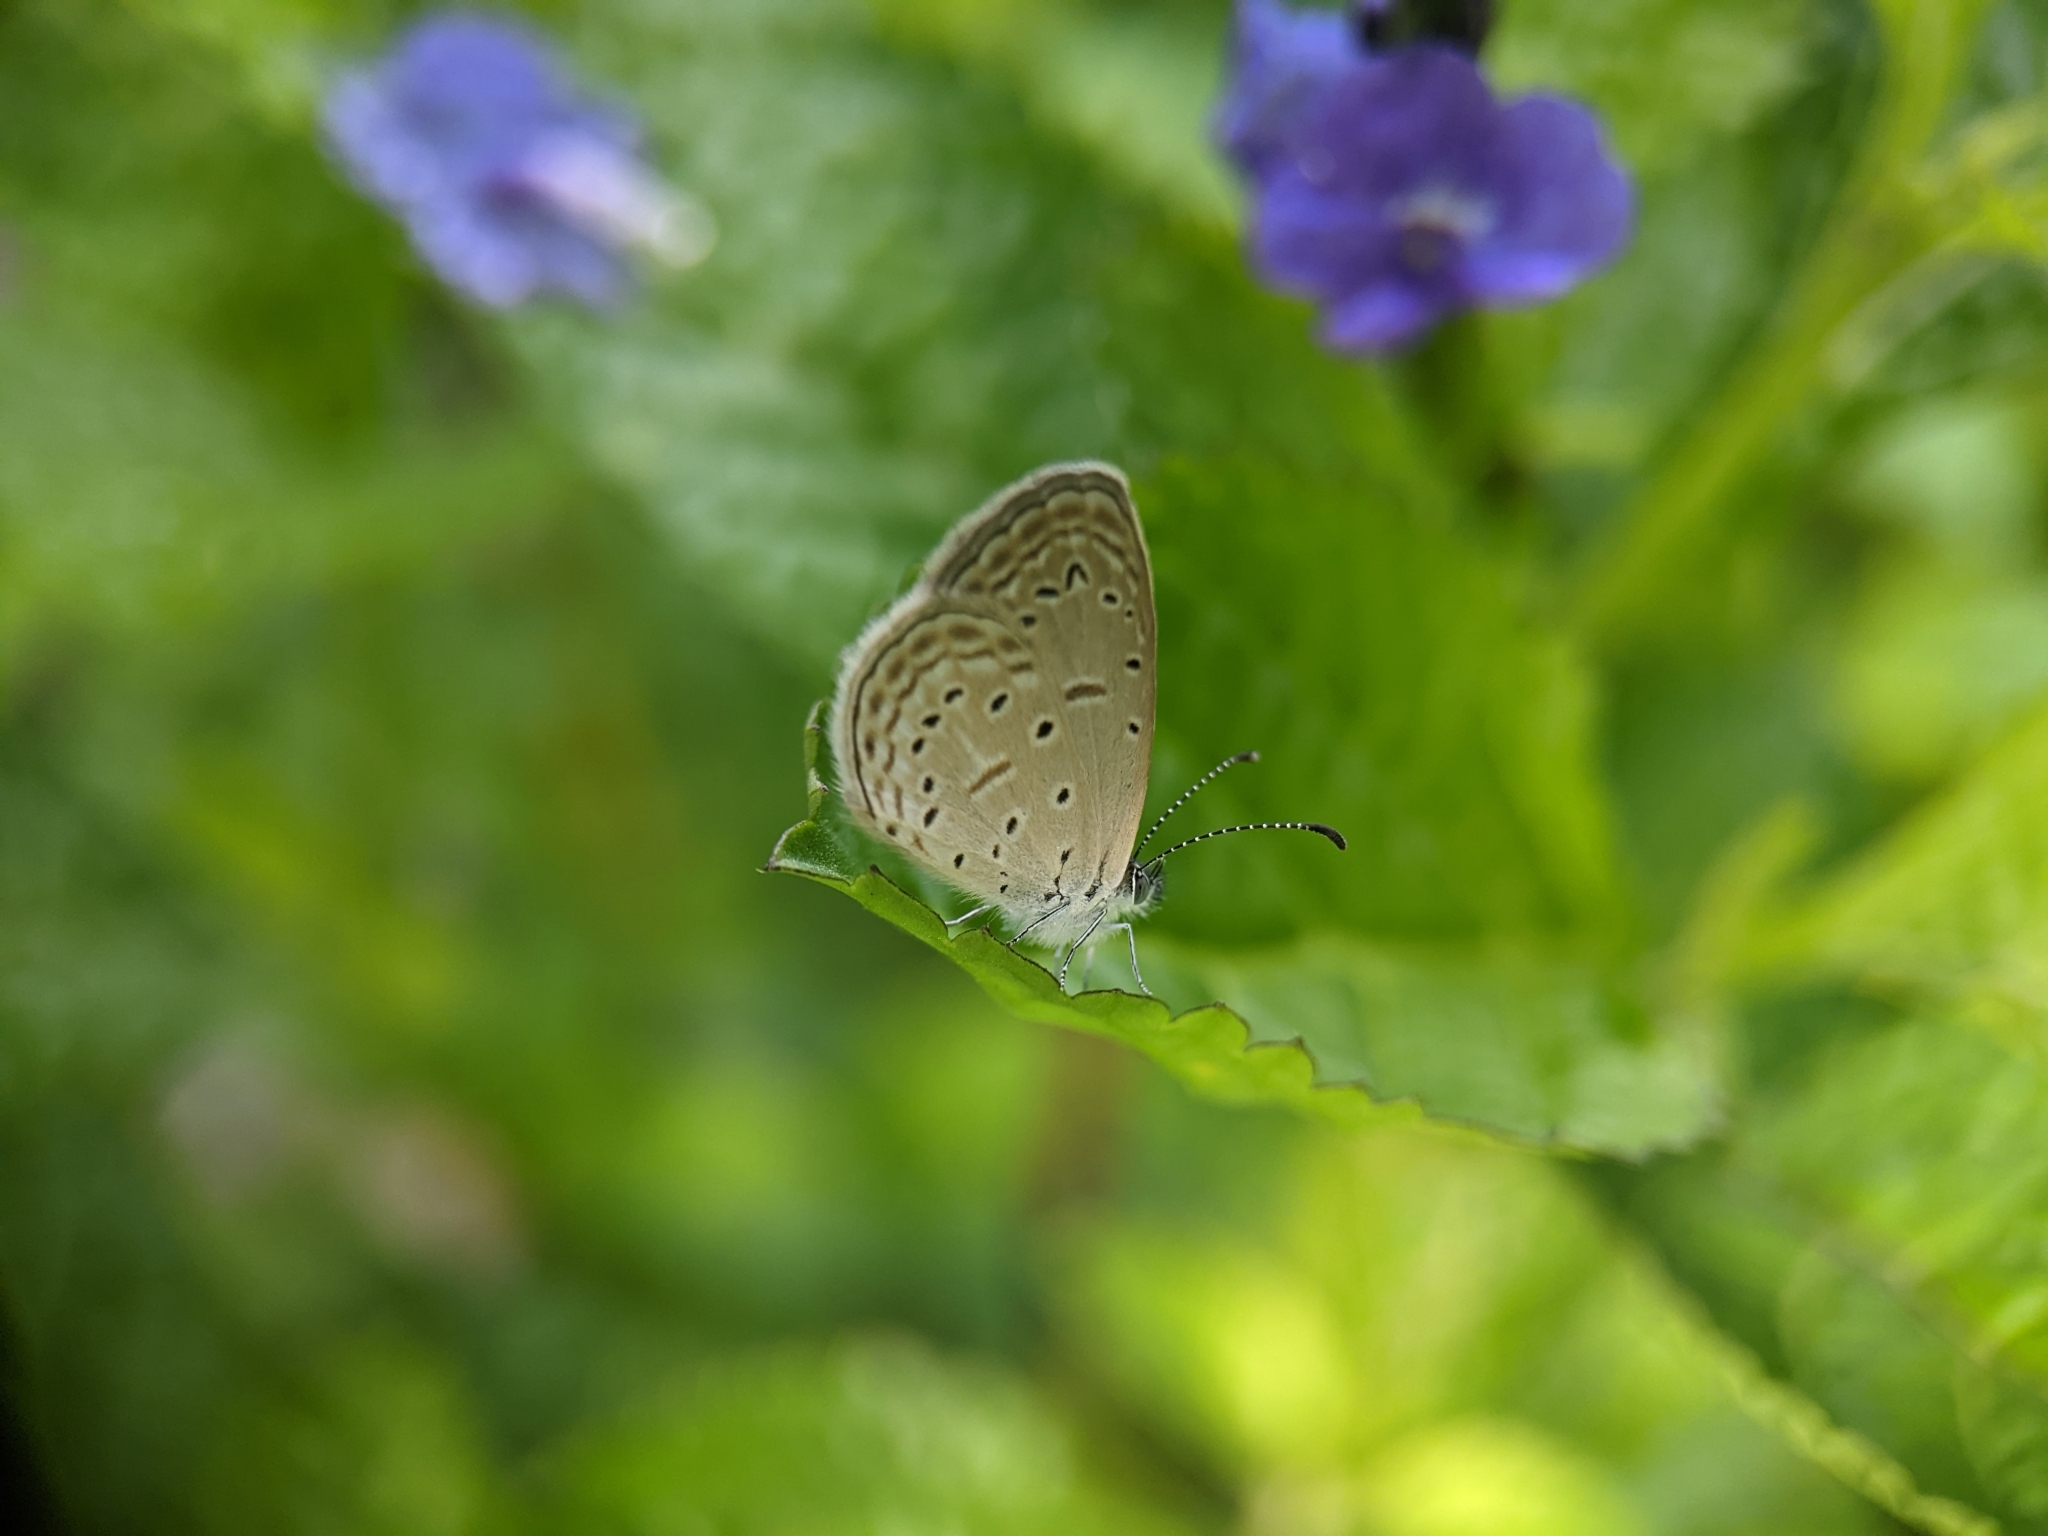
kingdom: Animalia
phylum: Arthropoda
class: Insecta
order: Lepidoptera
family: Lycaenidae
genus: Zizula
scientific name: Zizula hylax
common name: Gaika blue
